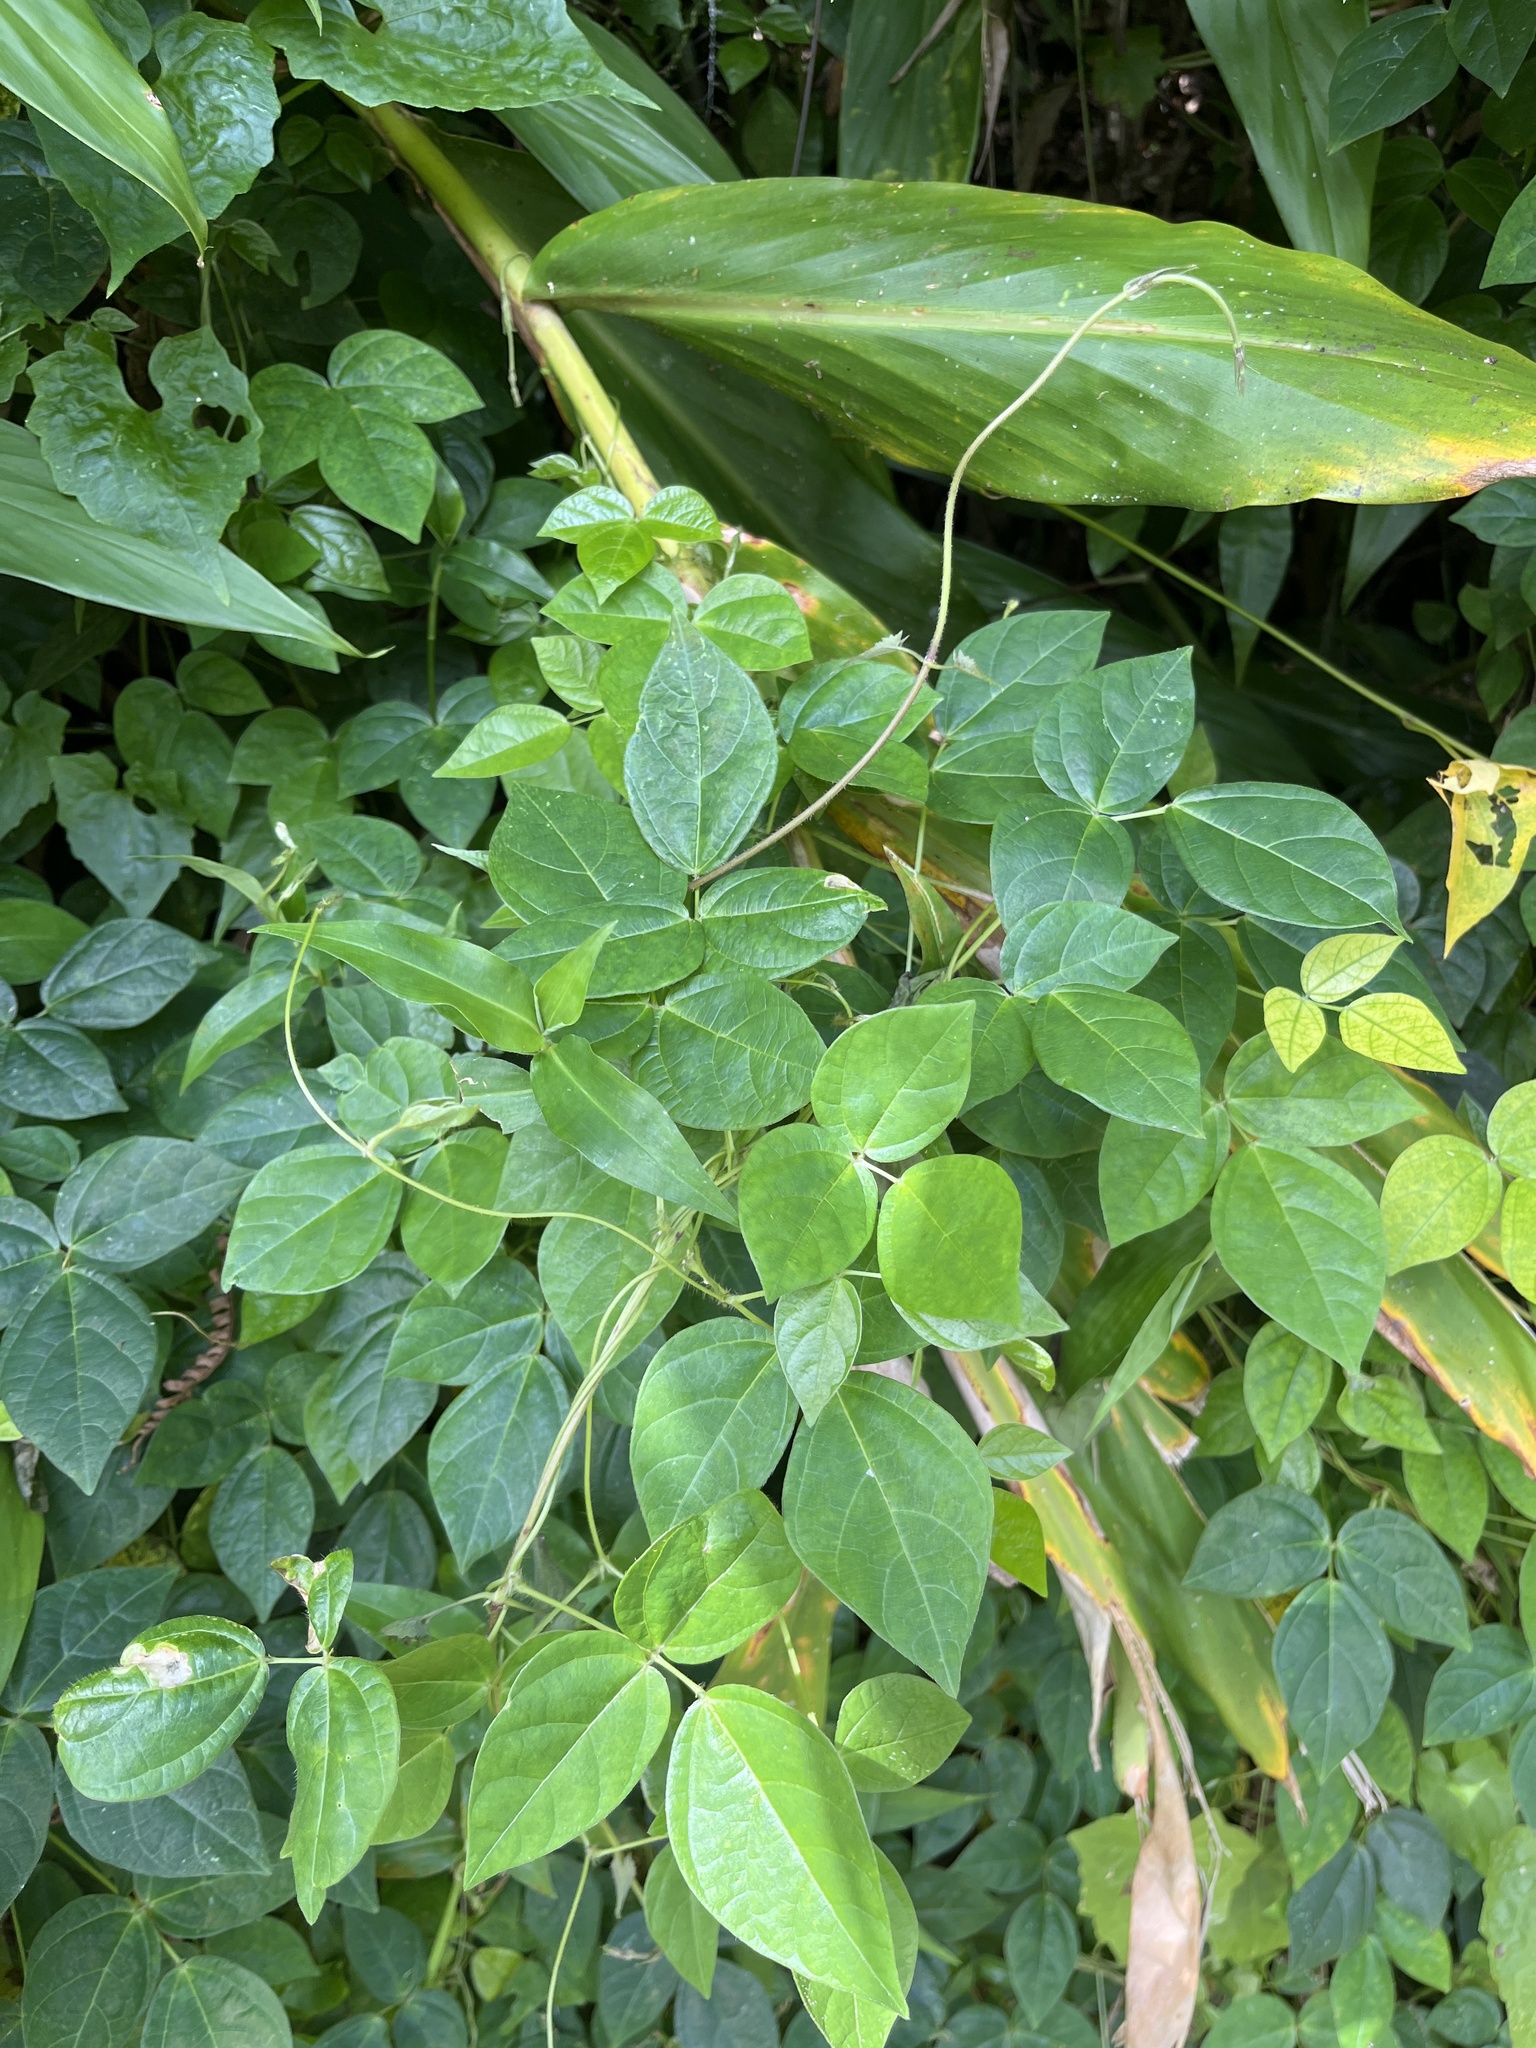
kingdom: Plantae
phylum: Tracheophyta
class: Magnoliopsida
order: Fabales
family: Fabaceae
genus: Vigna
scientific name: Vigna hosei
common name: Sarawak-bean
